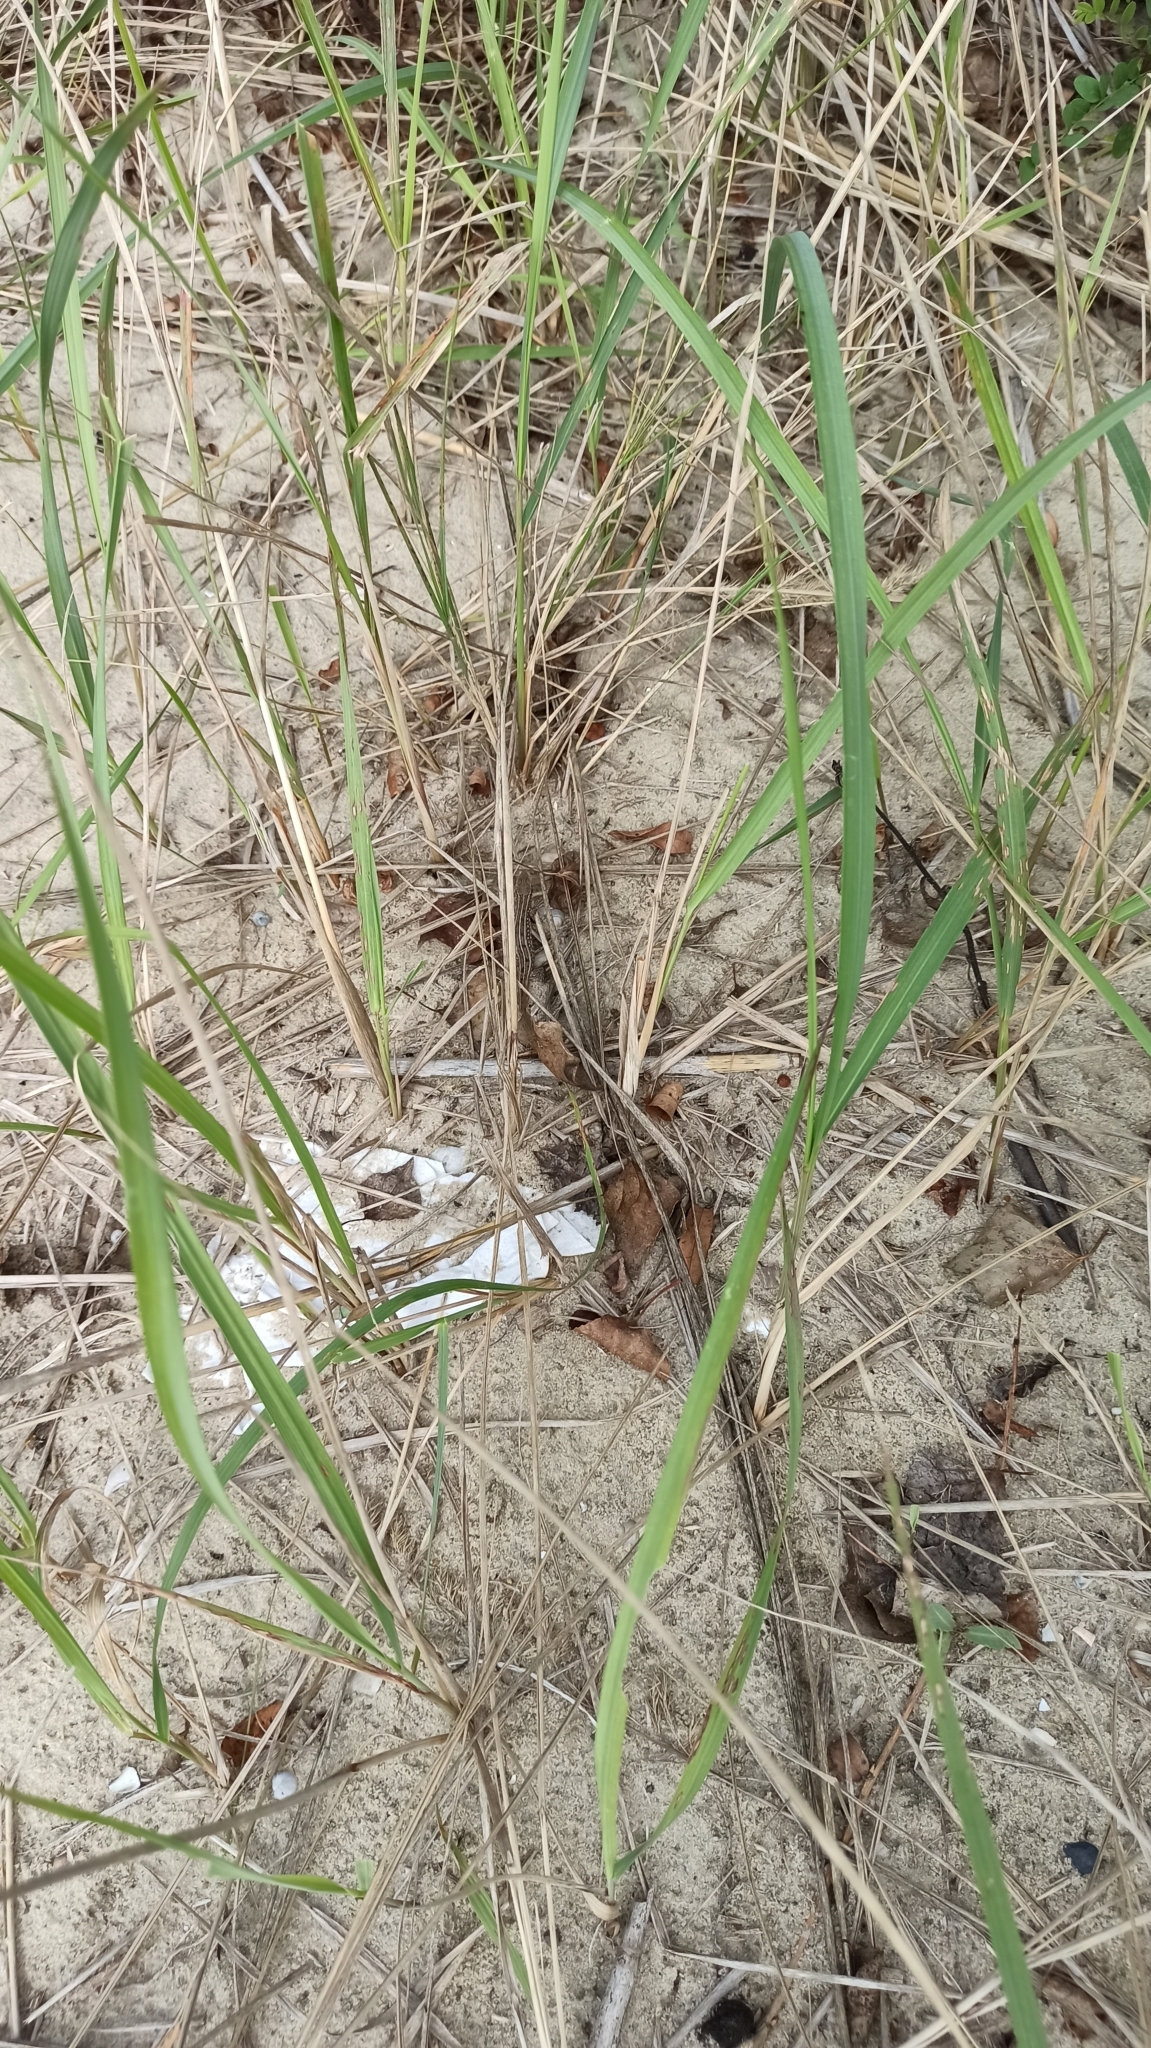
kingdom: Animalia
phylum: Chordata
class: Squamata
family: Lacertidae
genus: Lacerta
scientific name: Lacerta agilis
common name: Sand lizard
